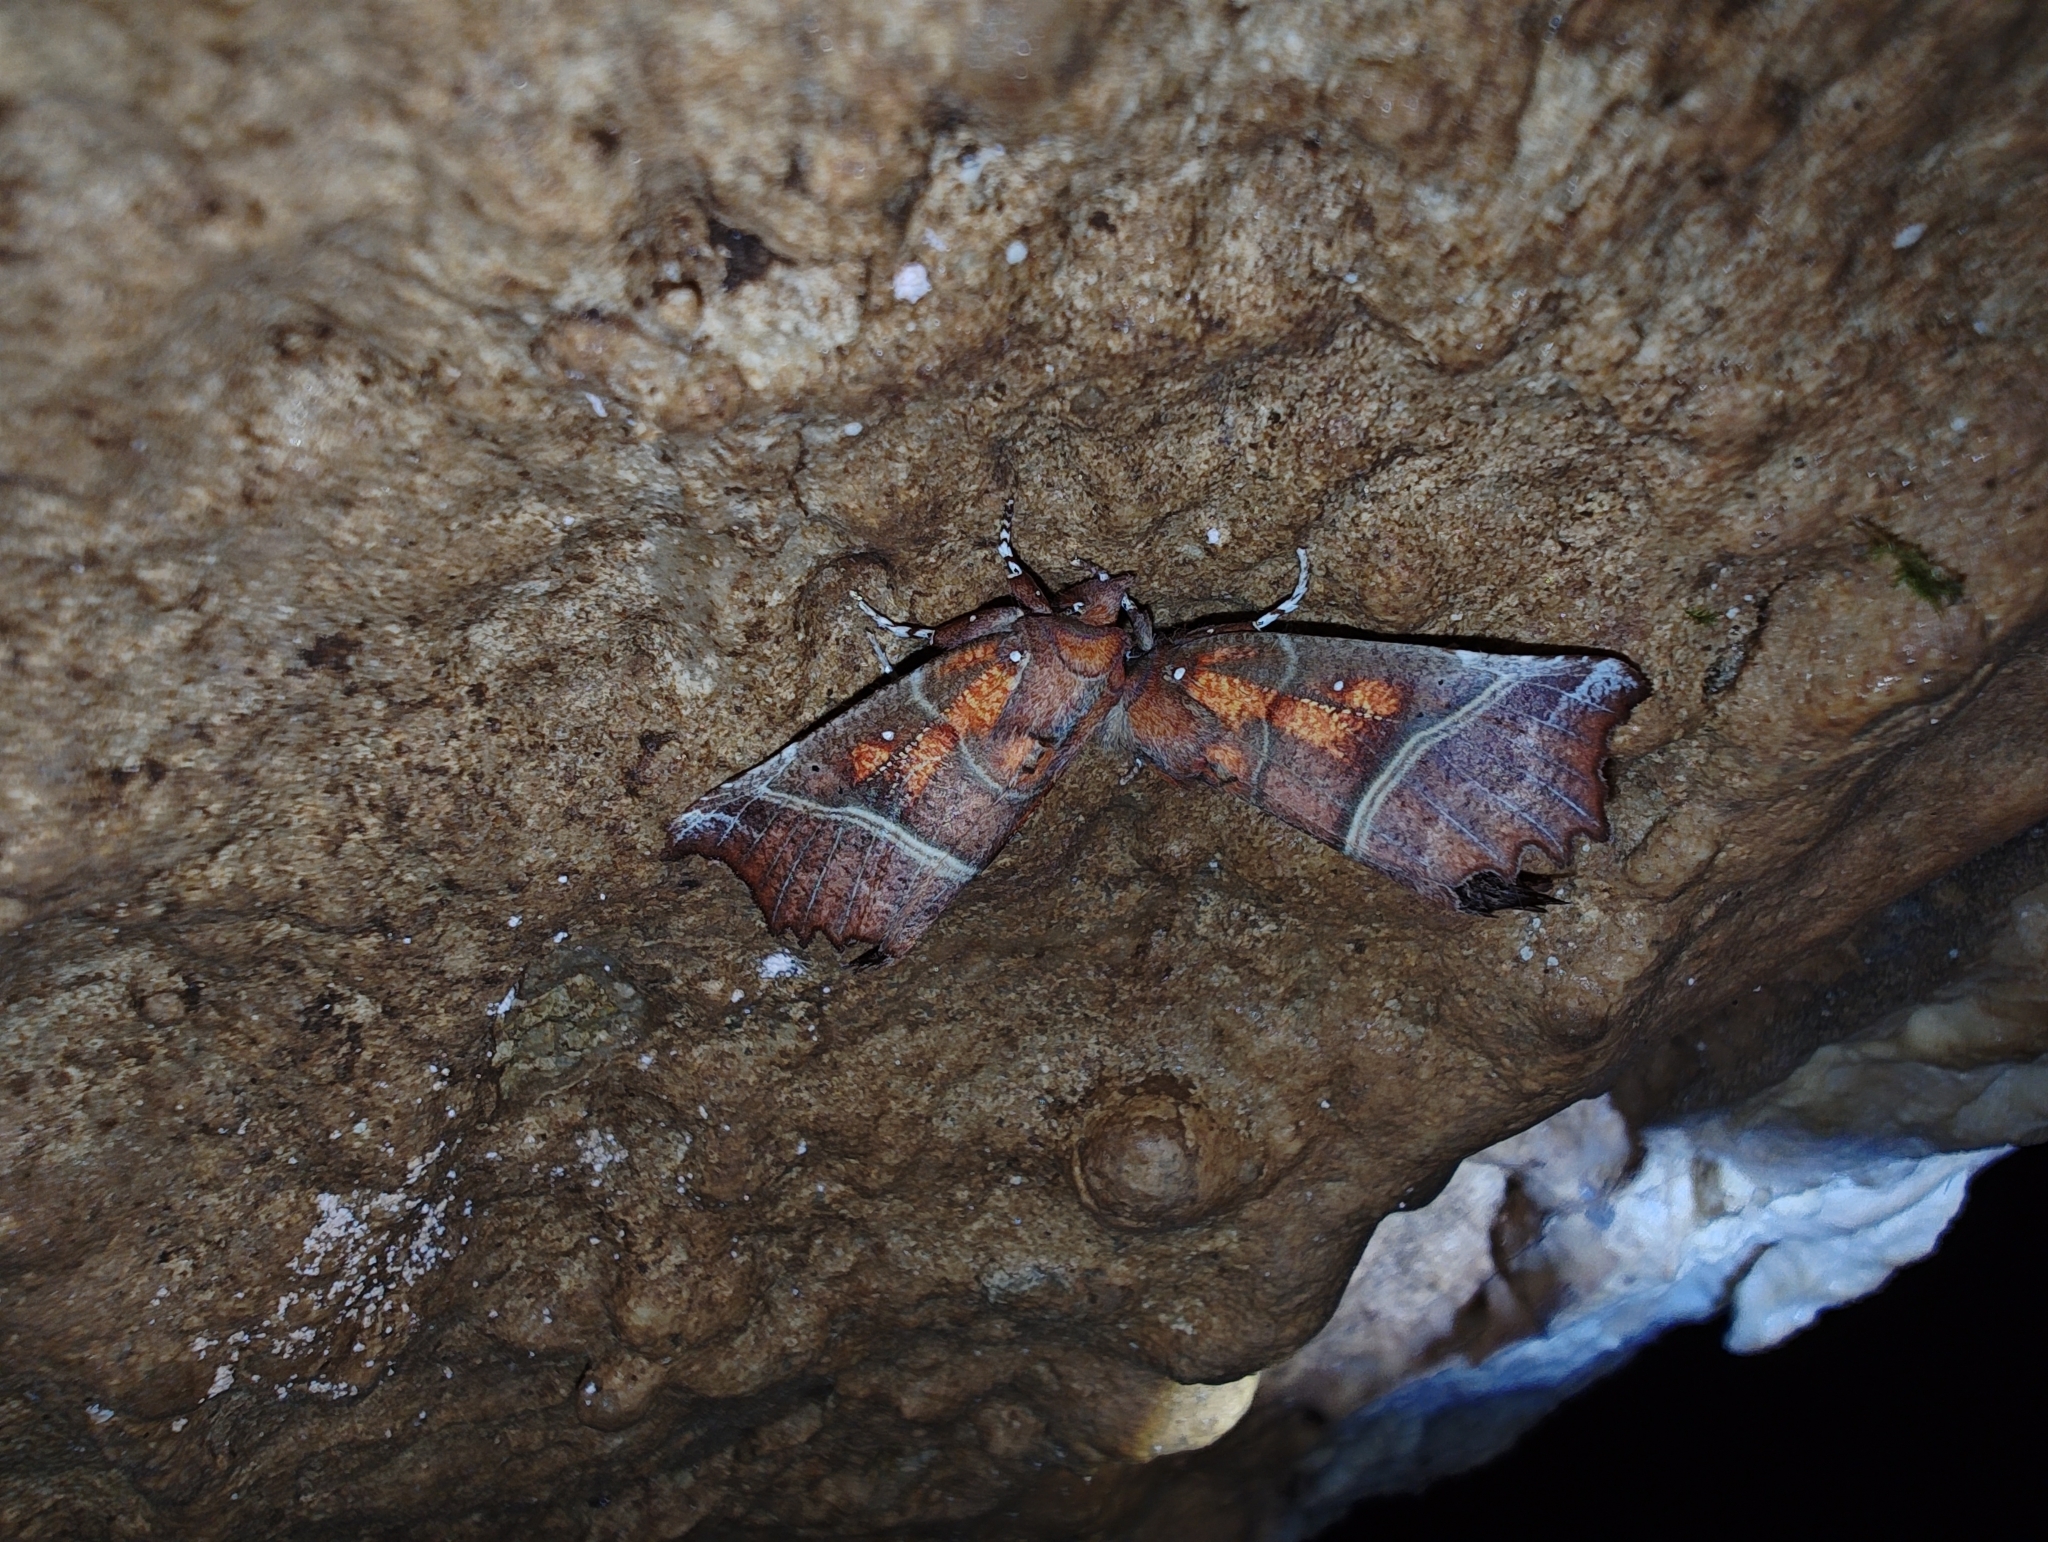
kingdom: Animalia
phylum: Arthropoda
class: Insecta
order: Lepidoptera
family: Erebidae
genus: Scoliopteryx
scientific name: Scoliopteryx libatrix
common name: Herald
